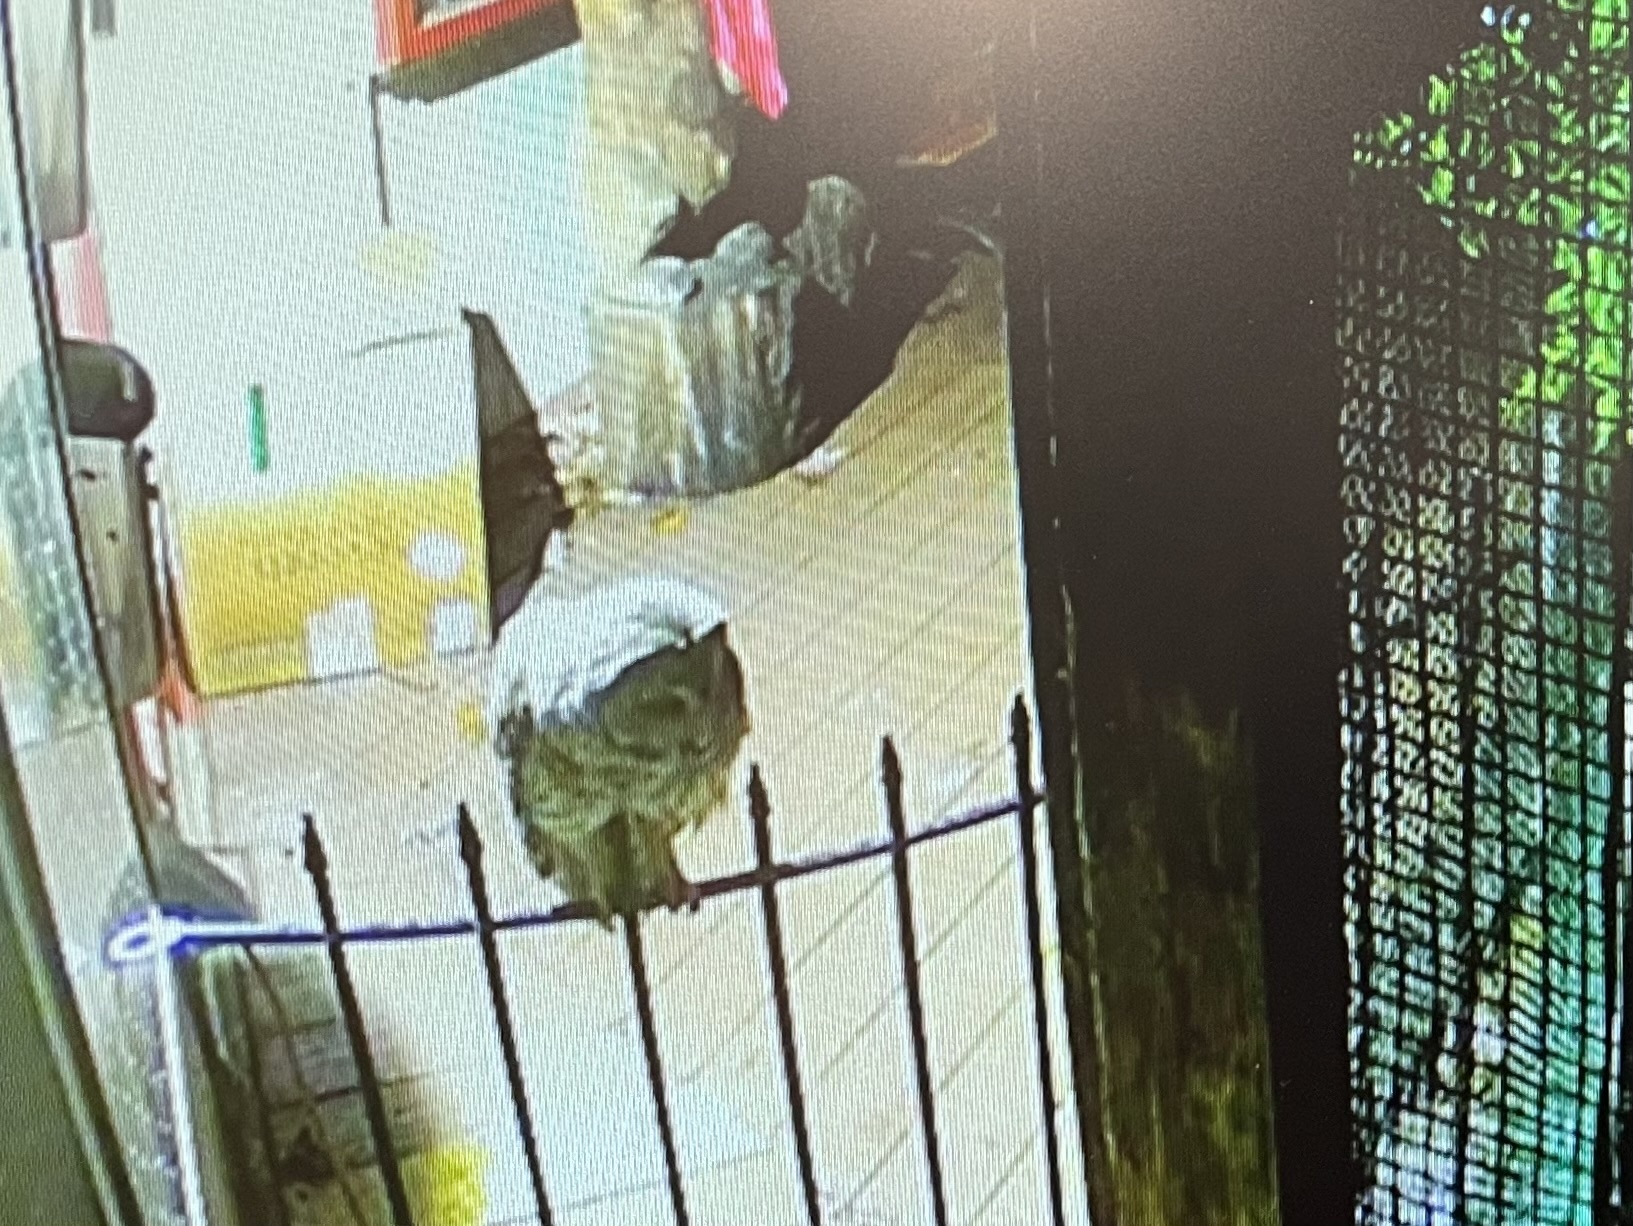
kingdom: Animalia
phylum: Chordata
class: Aves
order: Strigiformes
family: Strigidae
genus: Strix
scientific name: Strix varia
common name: Barred owl
